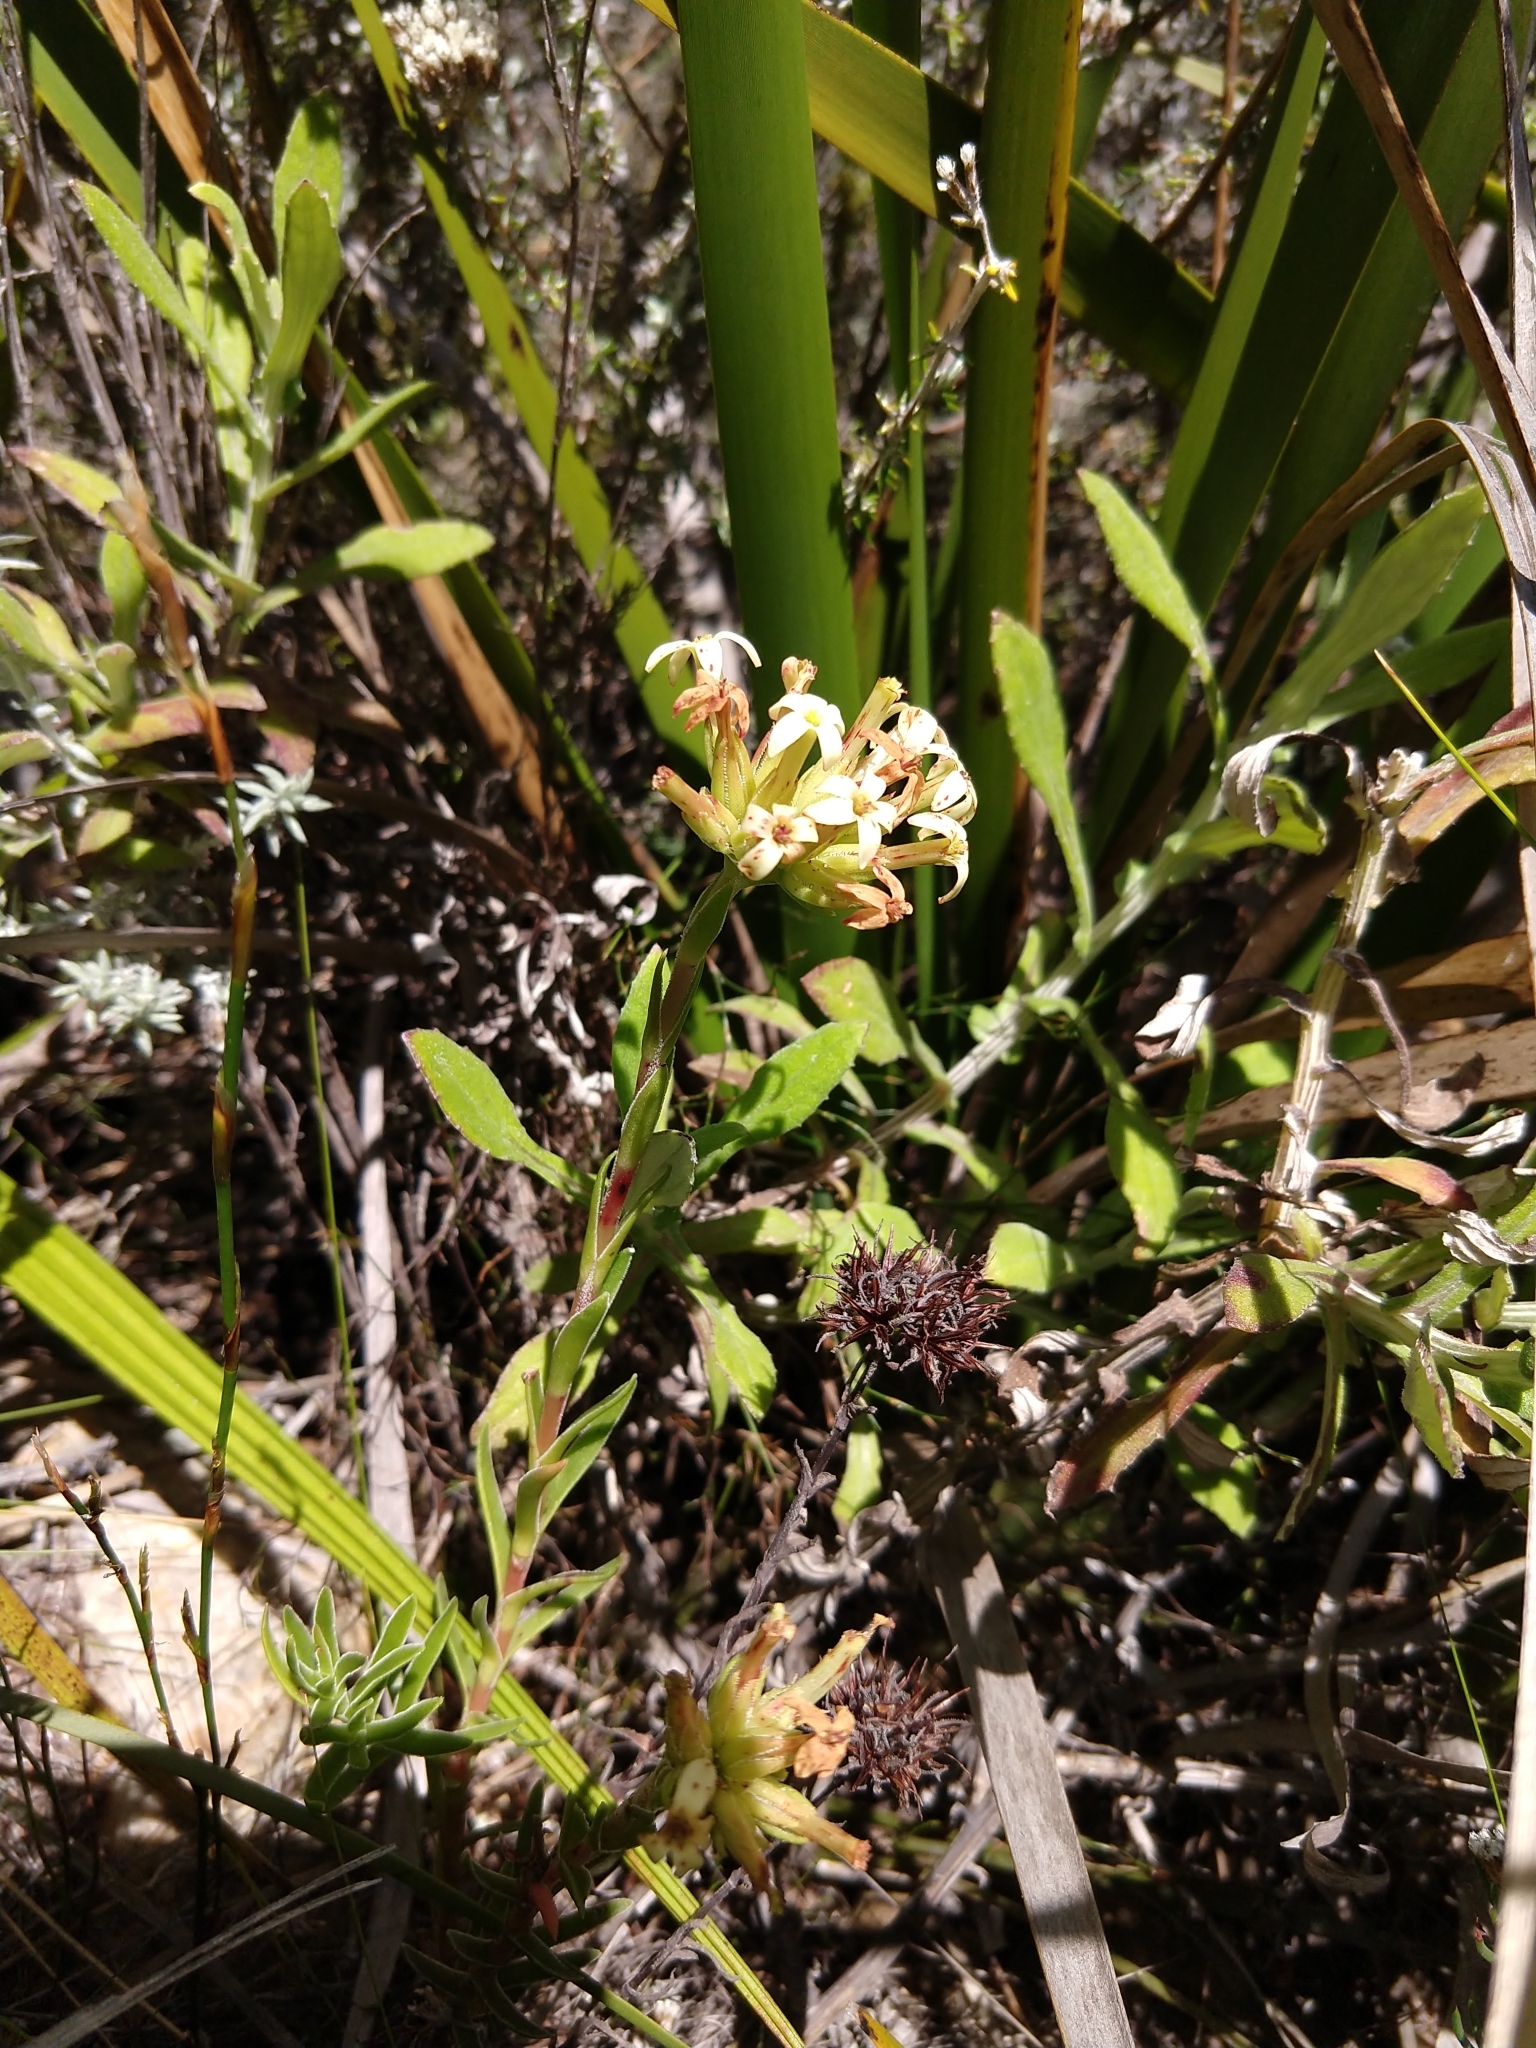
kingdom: Plantae
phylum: Tracheophyta
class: Magnoliopsida
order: Saxifragales
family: Crassulaceae
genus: Crassula
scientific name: Crassula fascicularis
